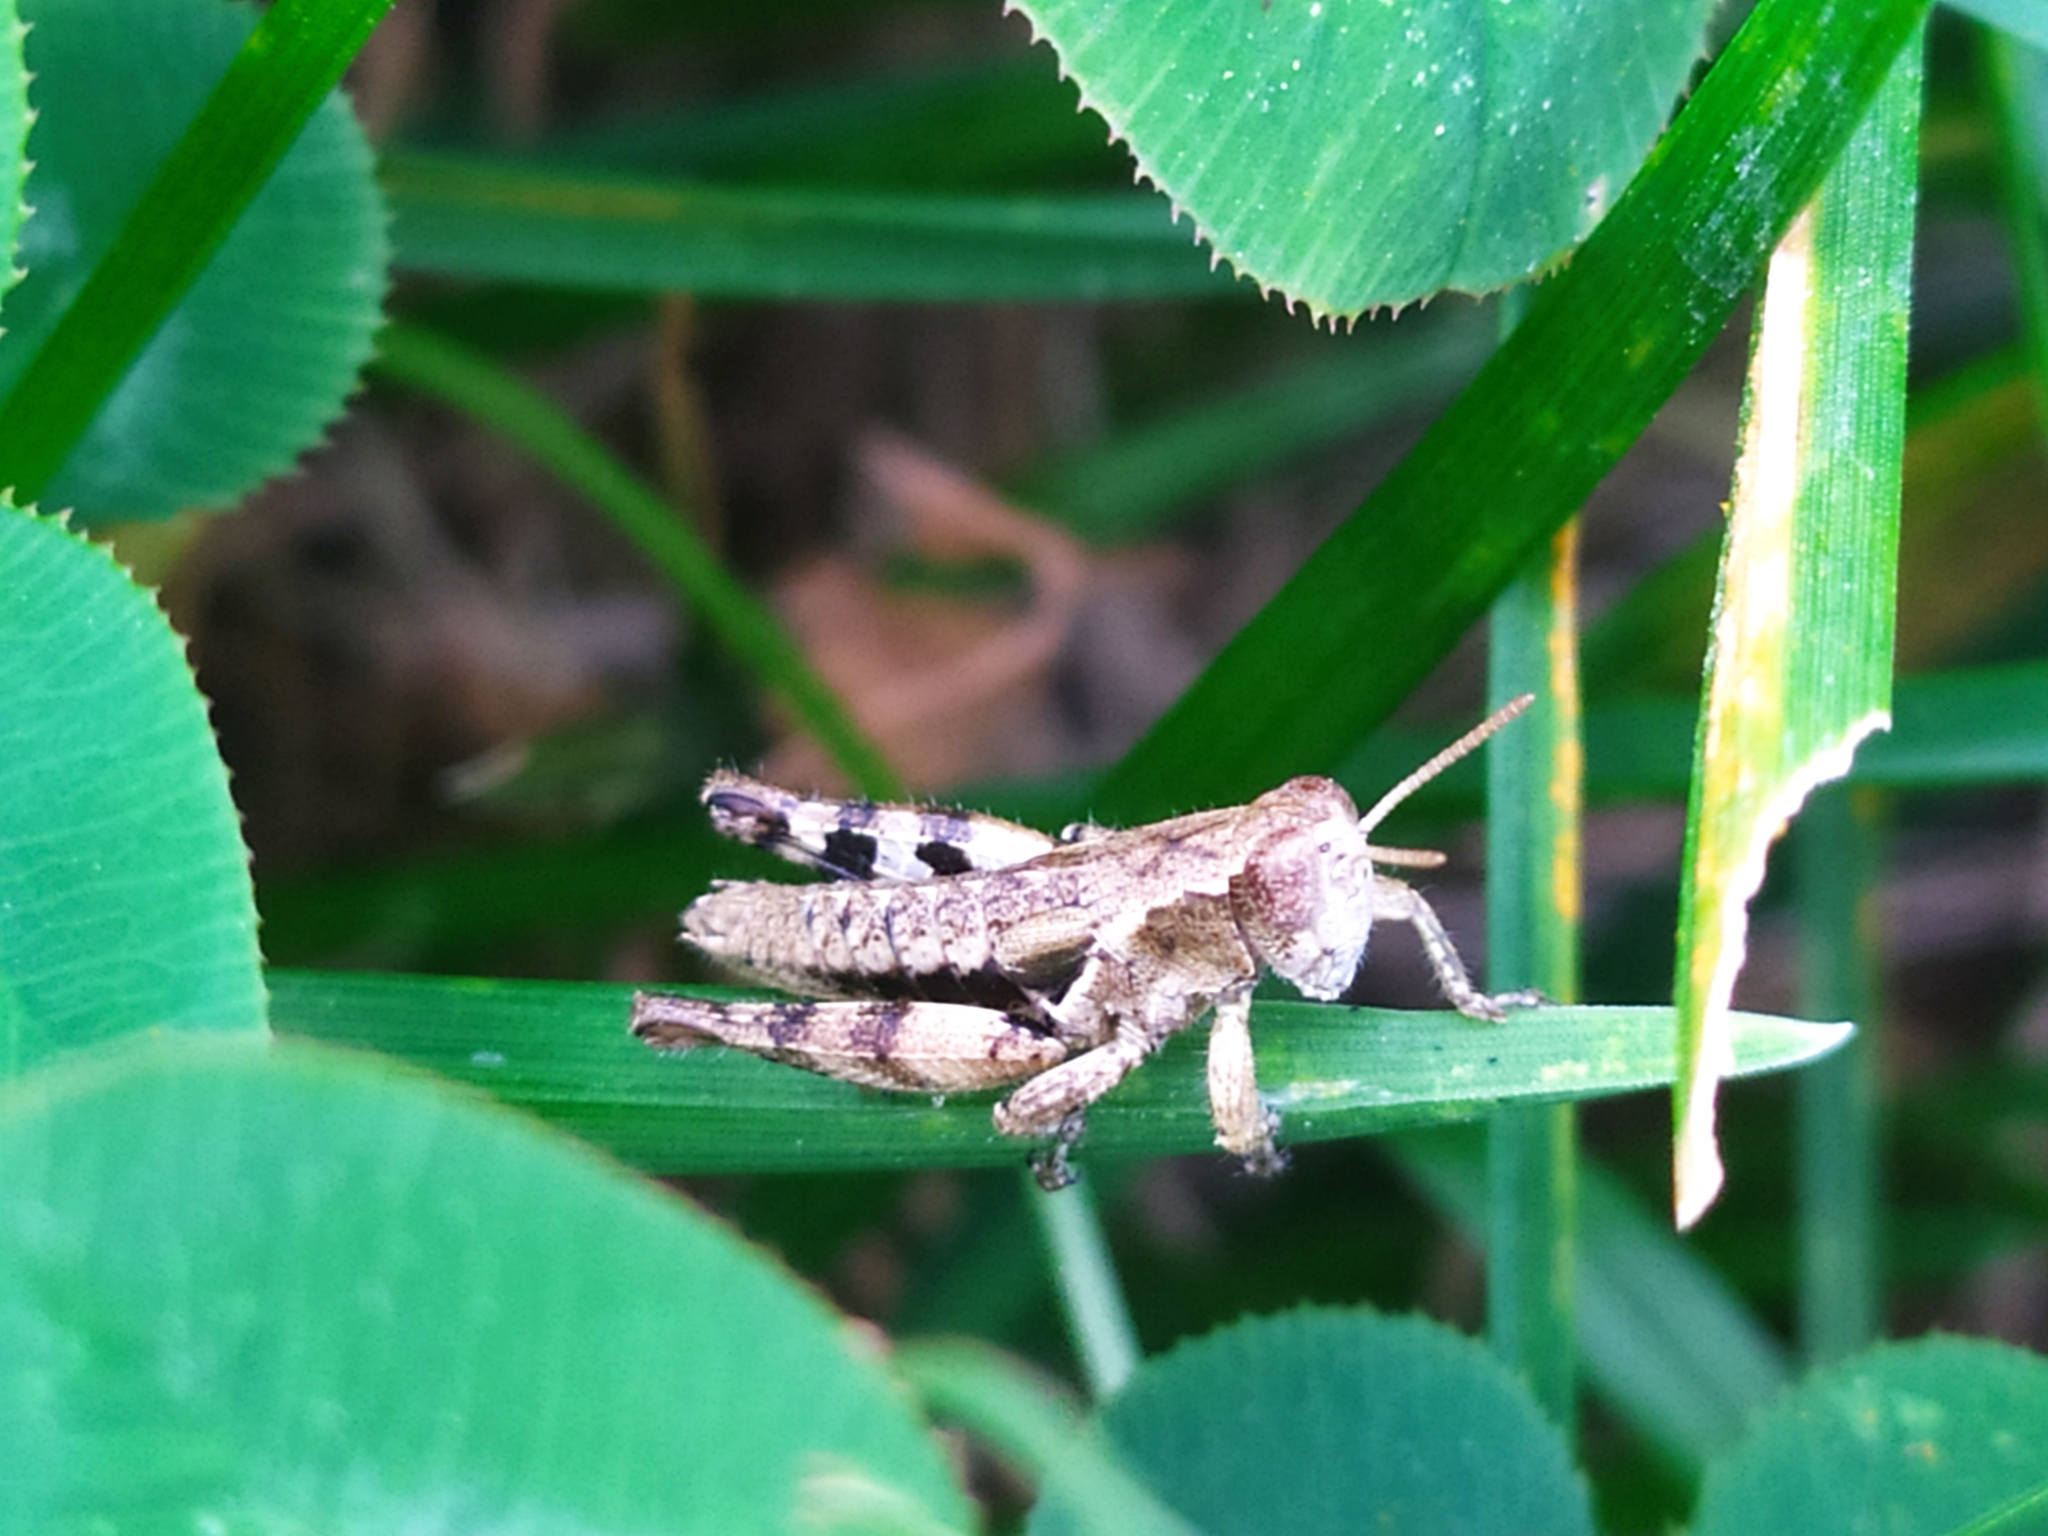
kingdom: Animalia
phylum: Arthropoda
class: Insecta
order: Orthoptera
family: Acrididae
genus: Pezotettix
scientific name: Pezotettix giornae
